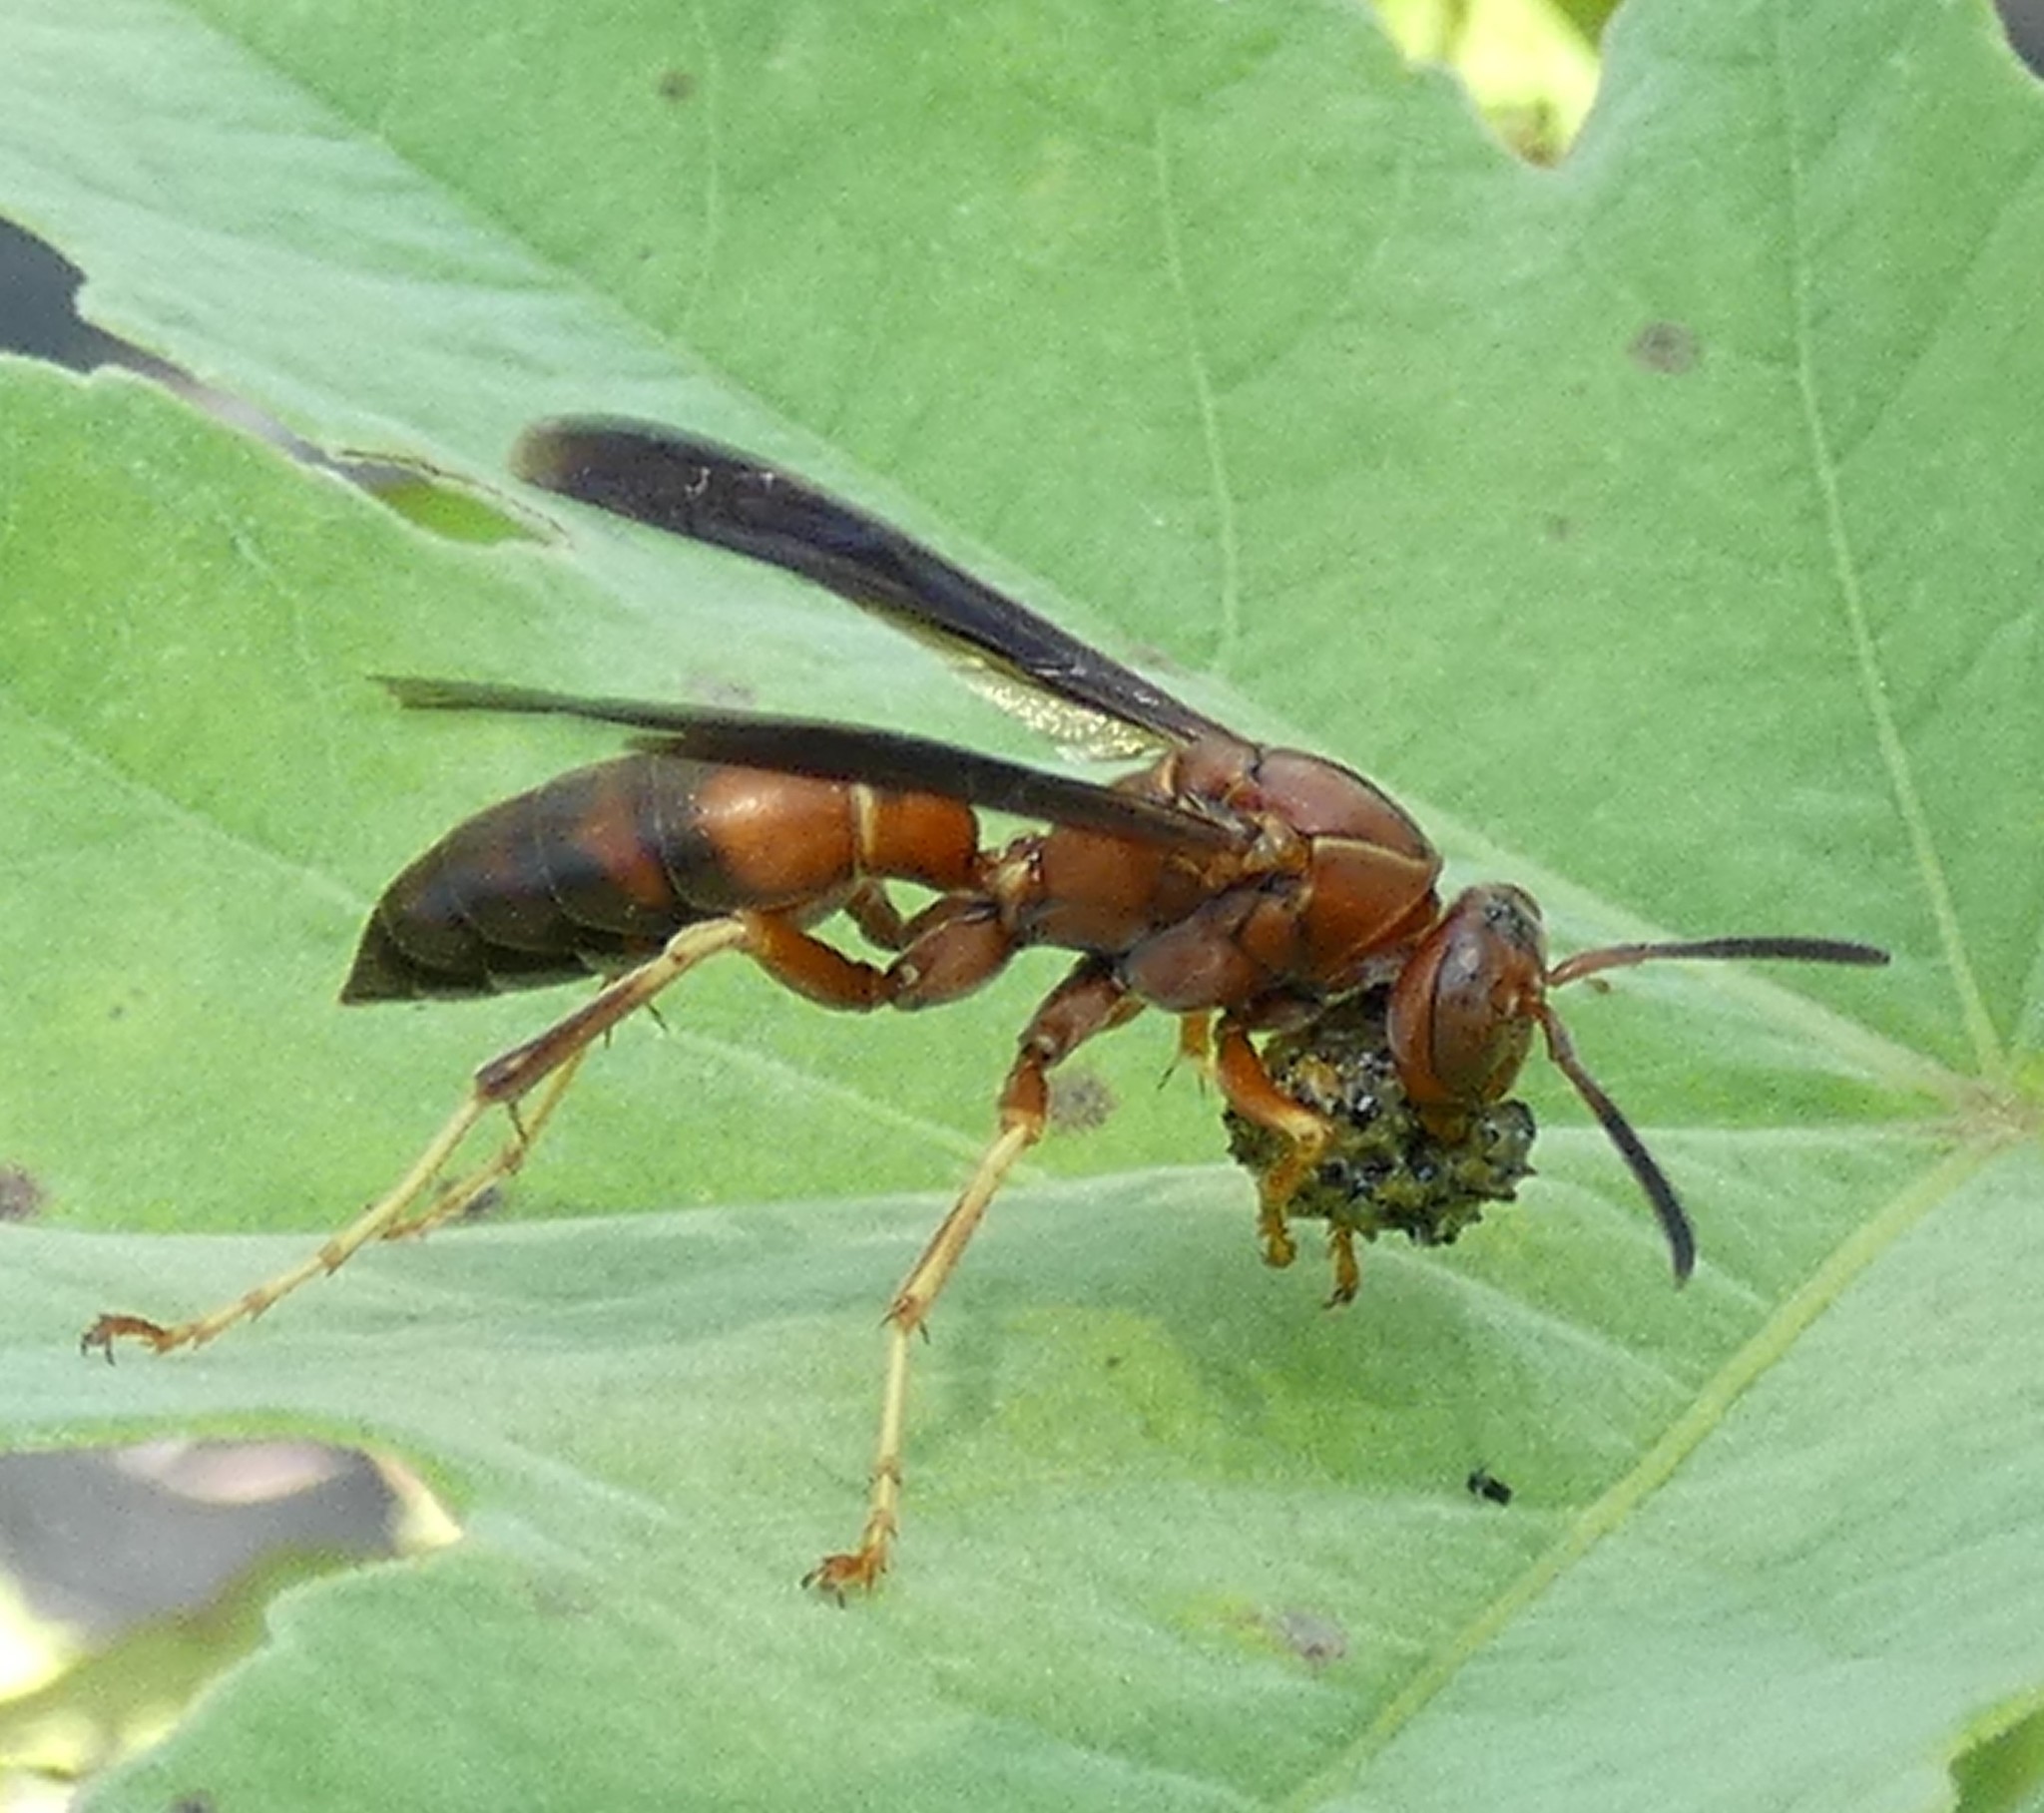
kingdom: Animalia
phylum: Arthropoda
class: Insecta
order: Hymenoptera
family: Eumenidae
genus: Polistes
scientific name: Polistes fuscatus
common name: Dark paper wasp
